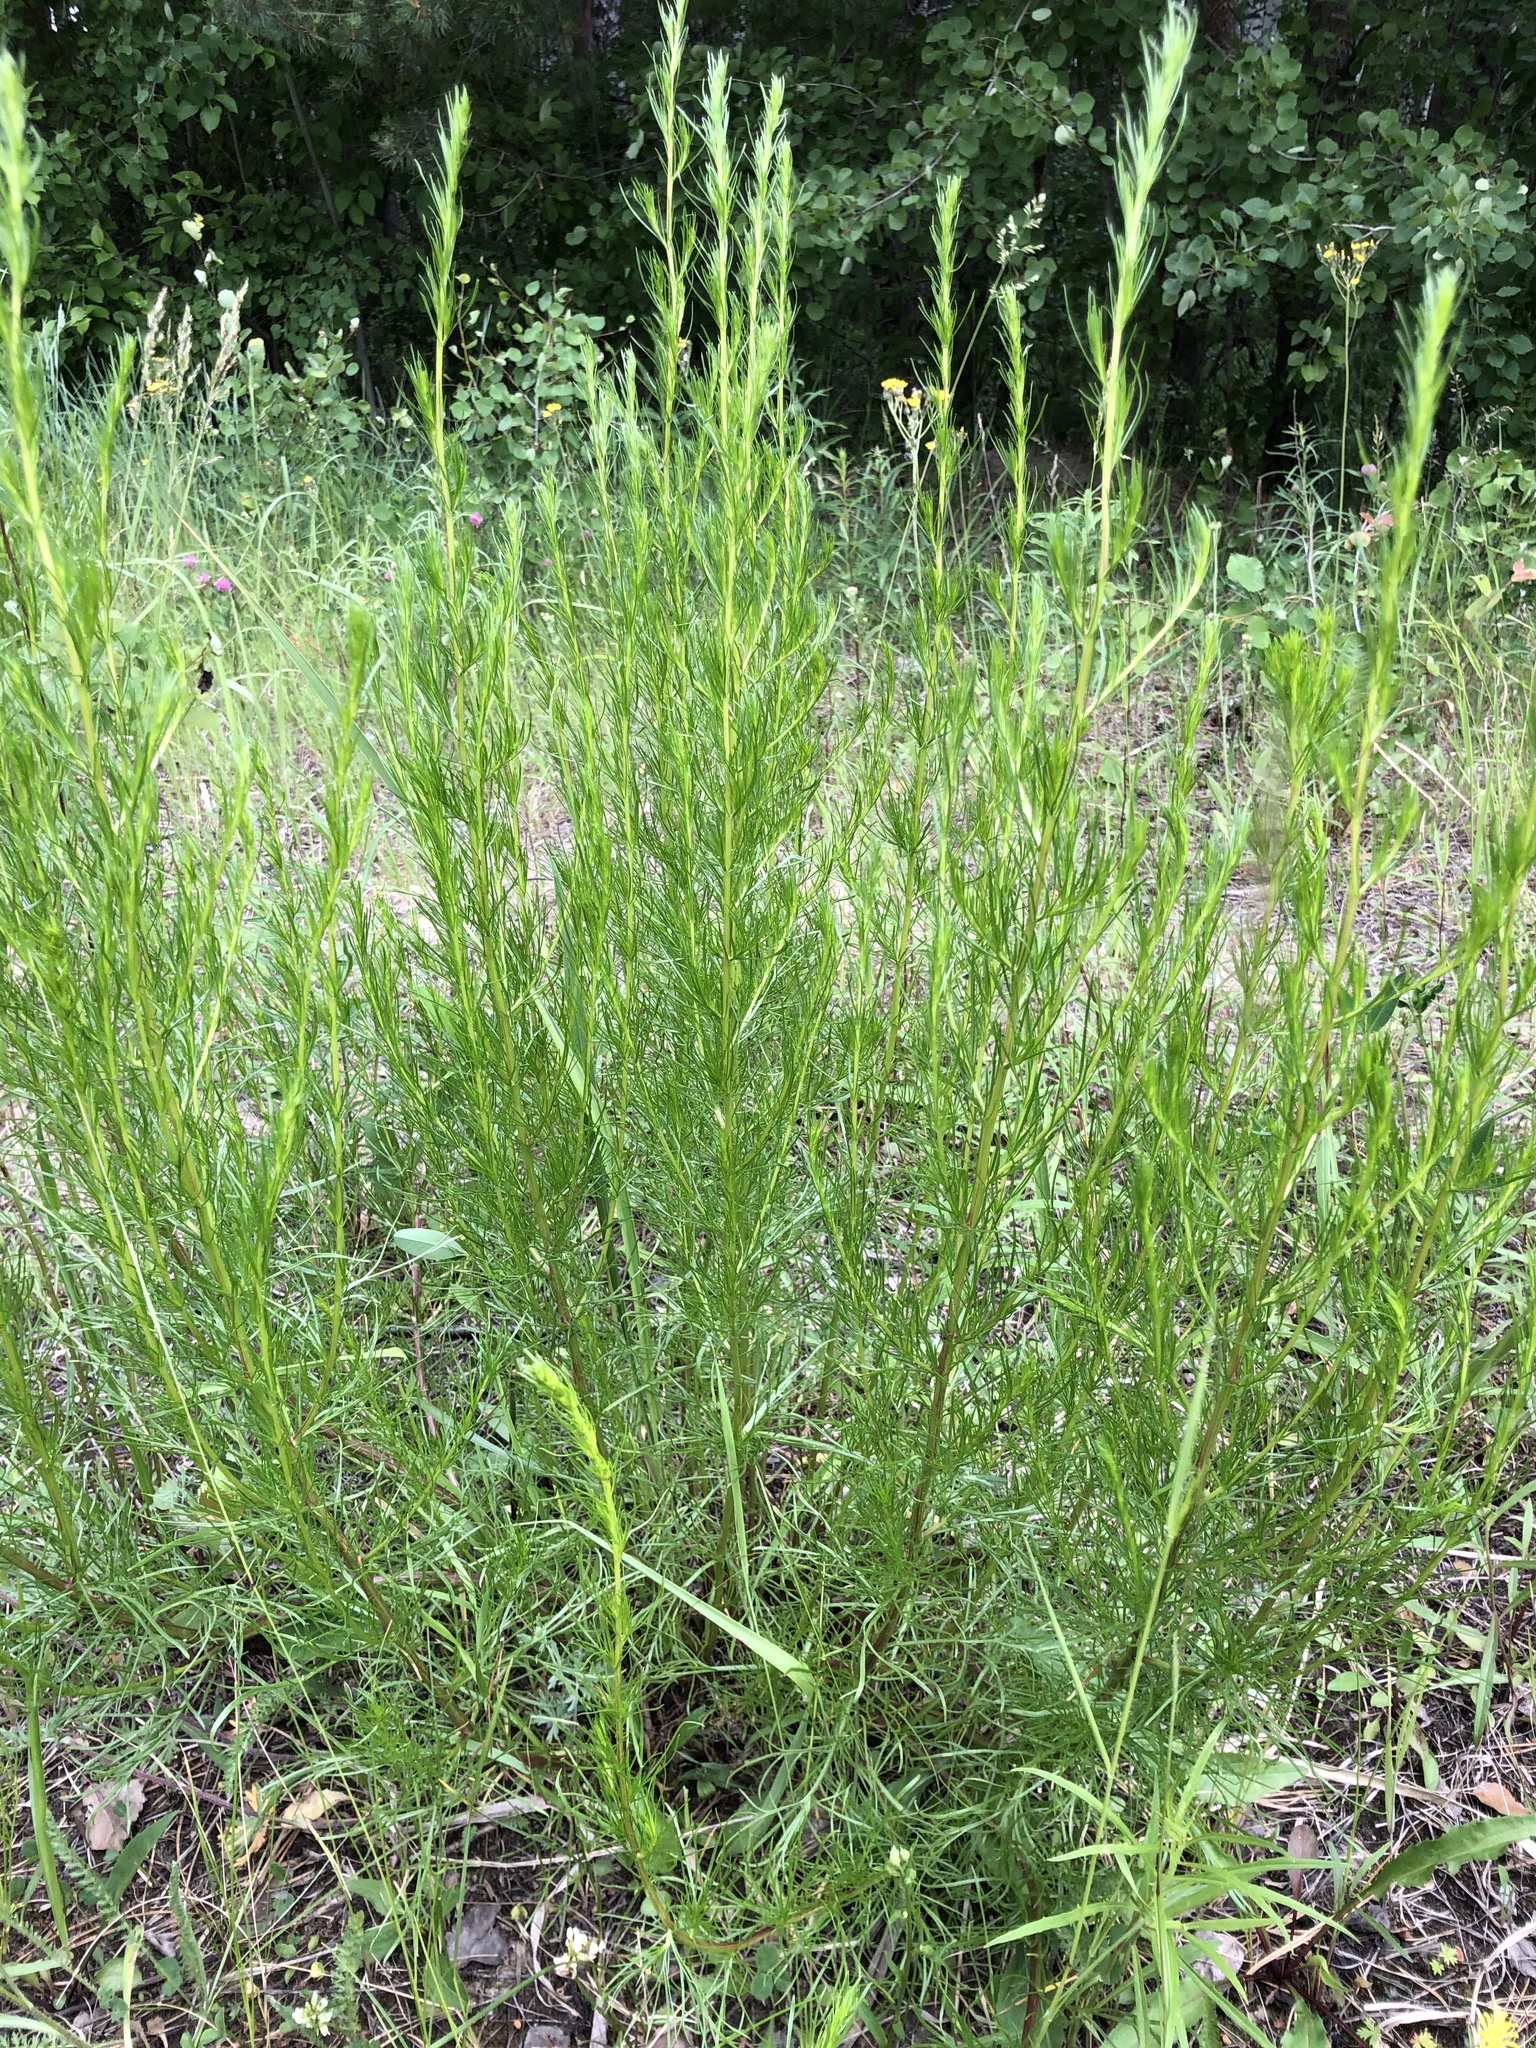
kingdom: Plantae
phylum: Tracheophyta
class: Magnoliopsida
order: Asterales
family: Asteraceae
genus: Artemisia
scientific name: Artemisia campestris
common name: Field wormwood
